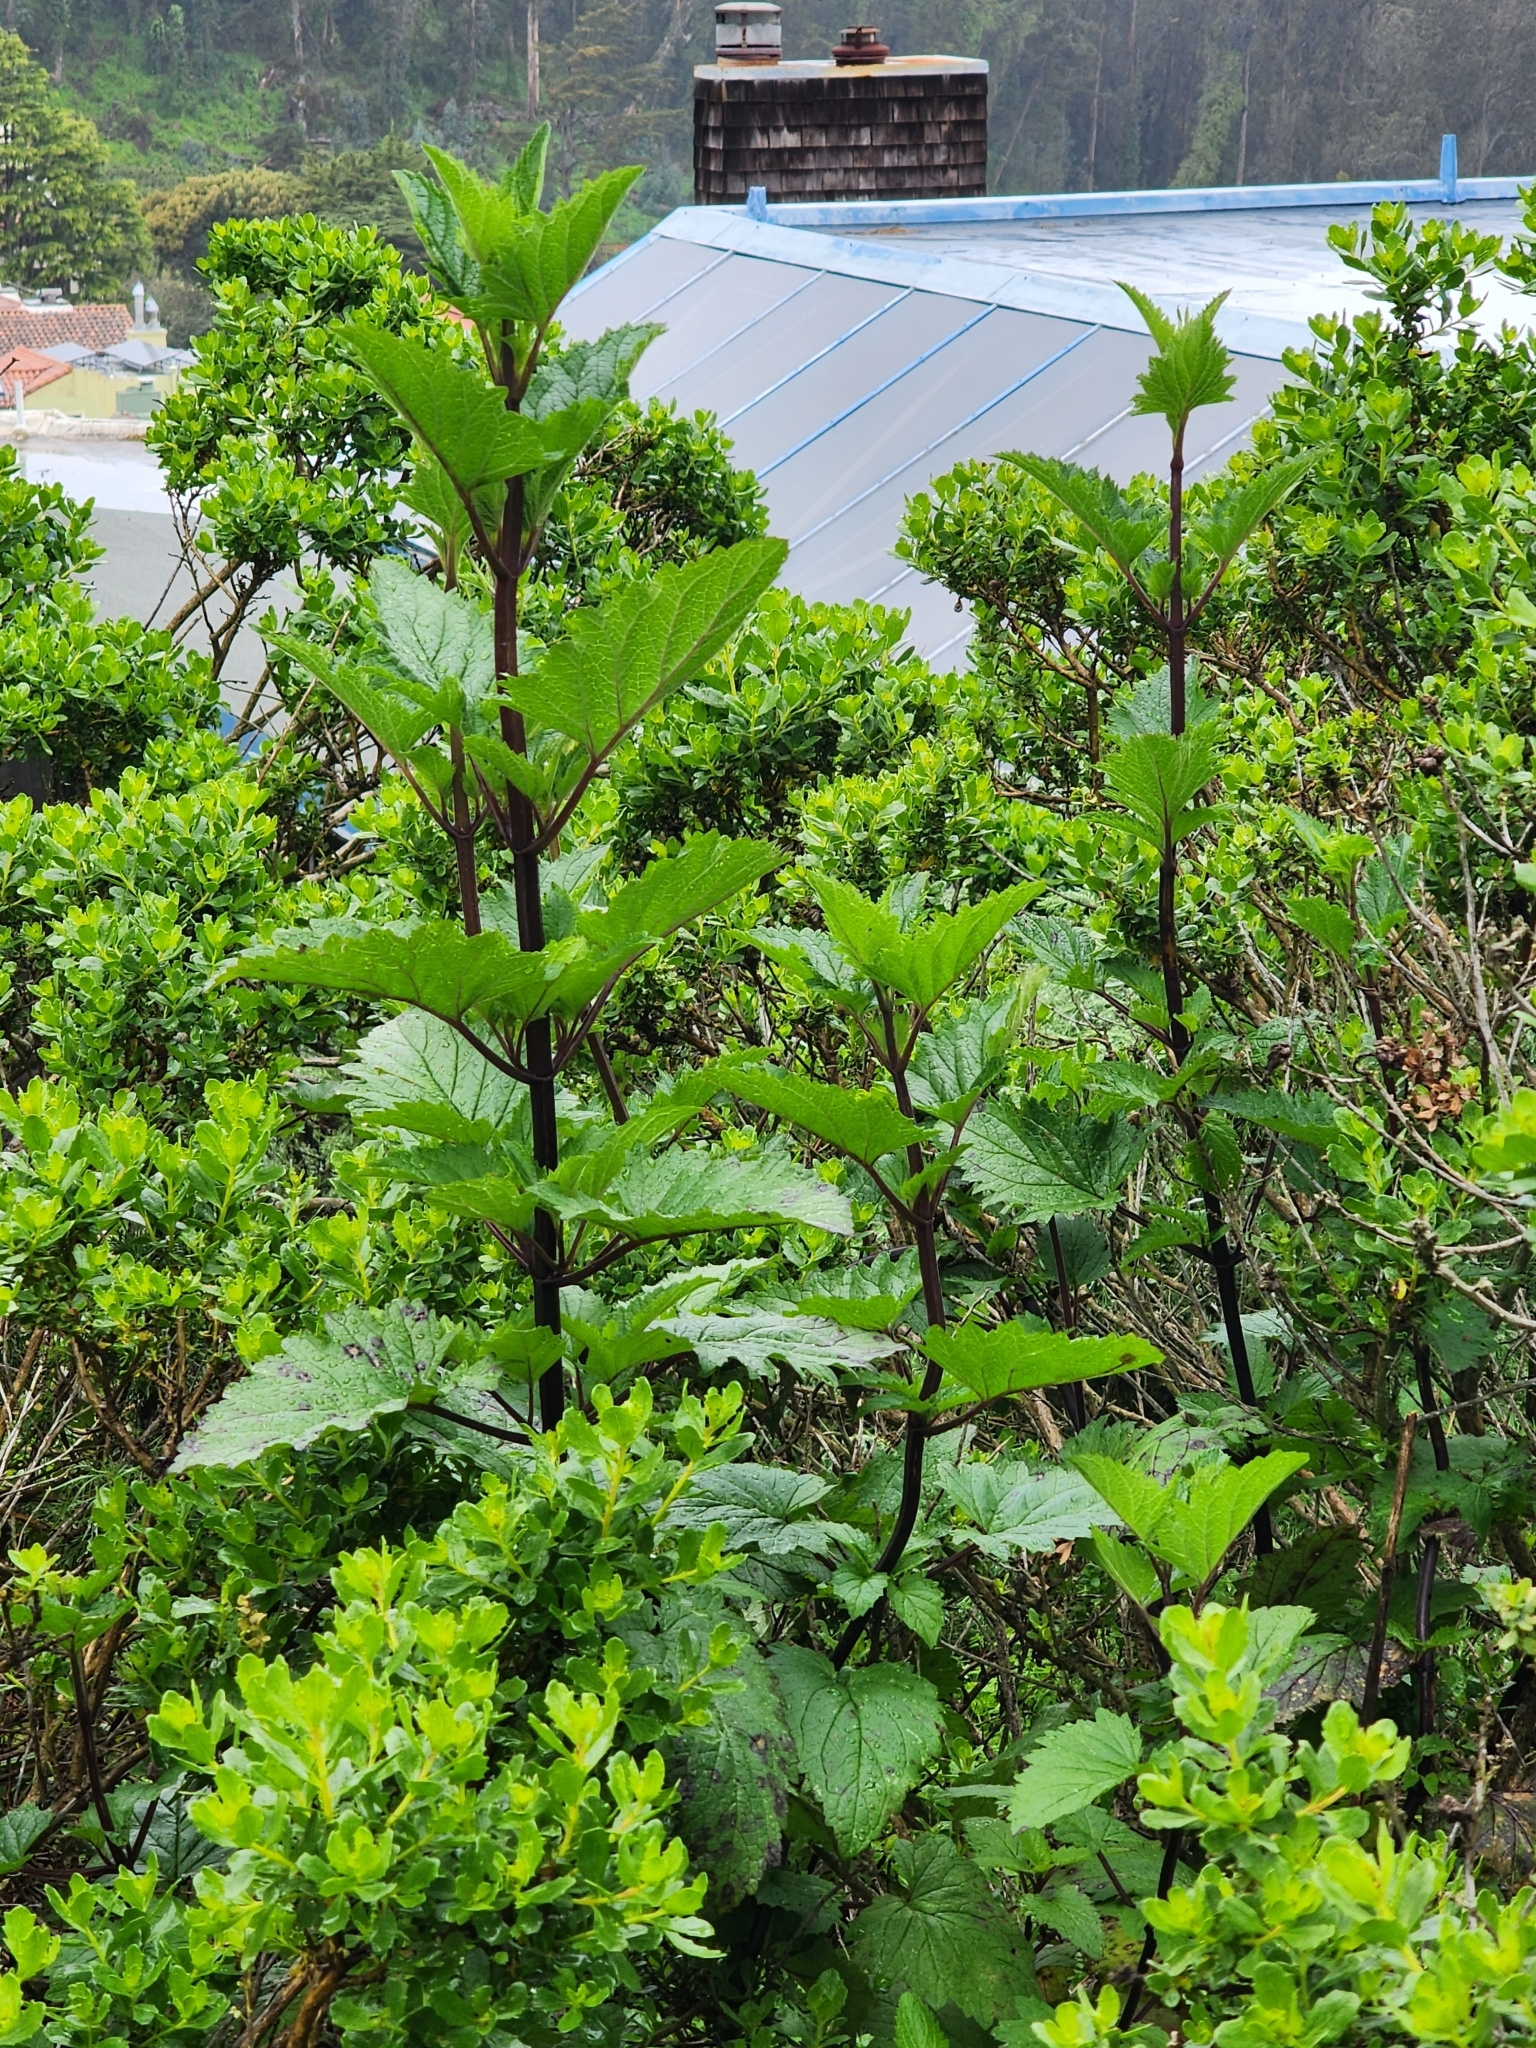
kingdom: Plantae
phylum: Tracheophyta
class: Magnoliopsida
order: Lamiales
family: Scrophulariaceae
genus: Scrophularia
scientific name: Scrophularia californica
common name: California figwort
